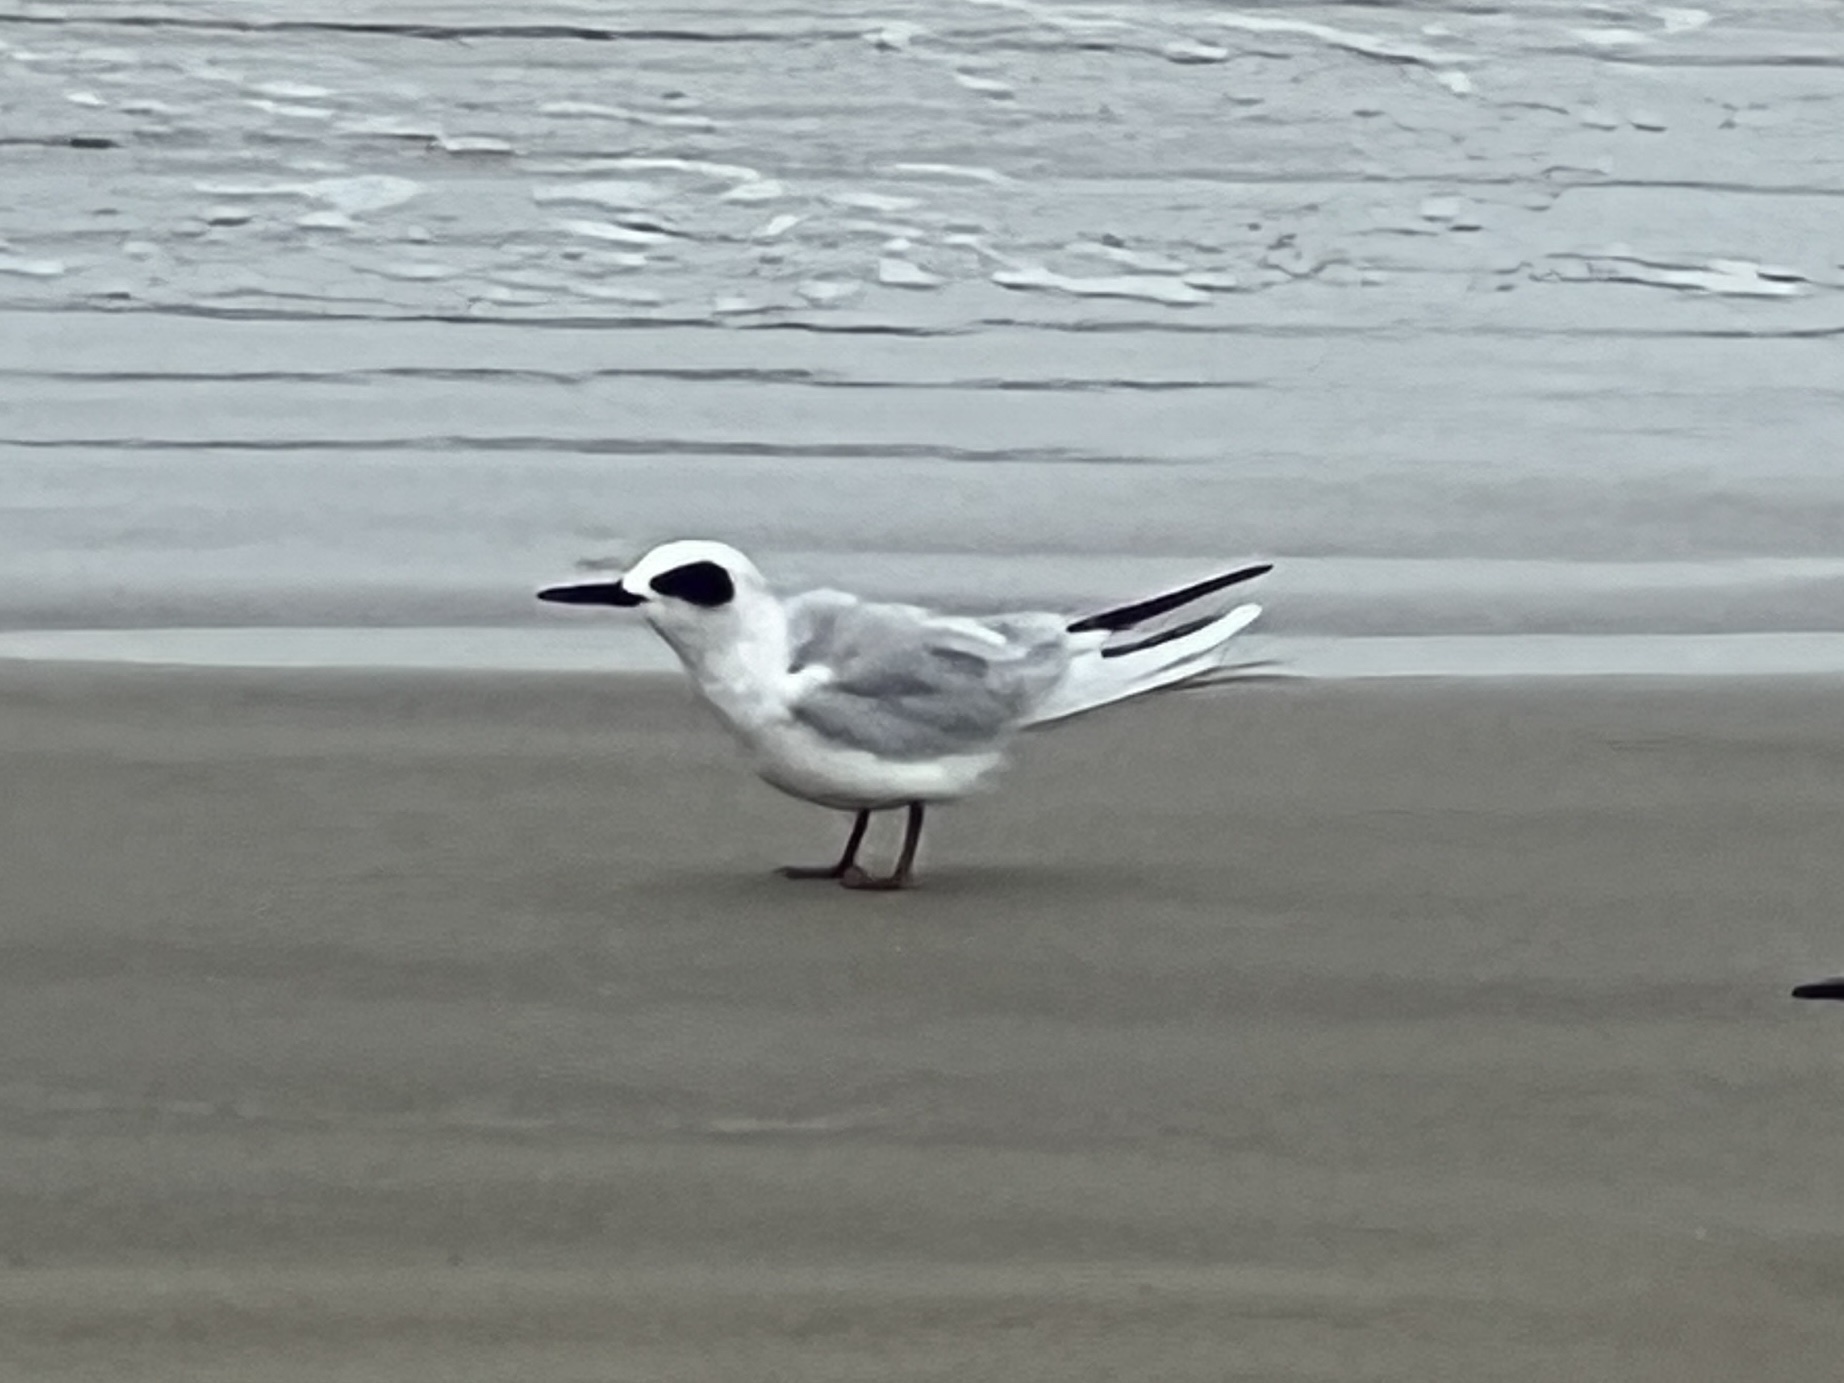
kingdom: Animalia
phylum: Chordata
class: Aves
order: Charadriiformes
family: Laridae
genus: Sterna
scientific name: Sterna forsteri
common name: Forster's tern
